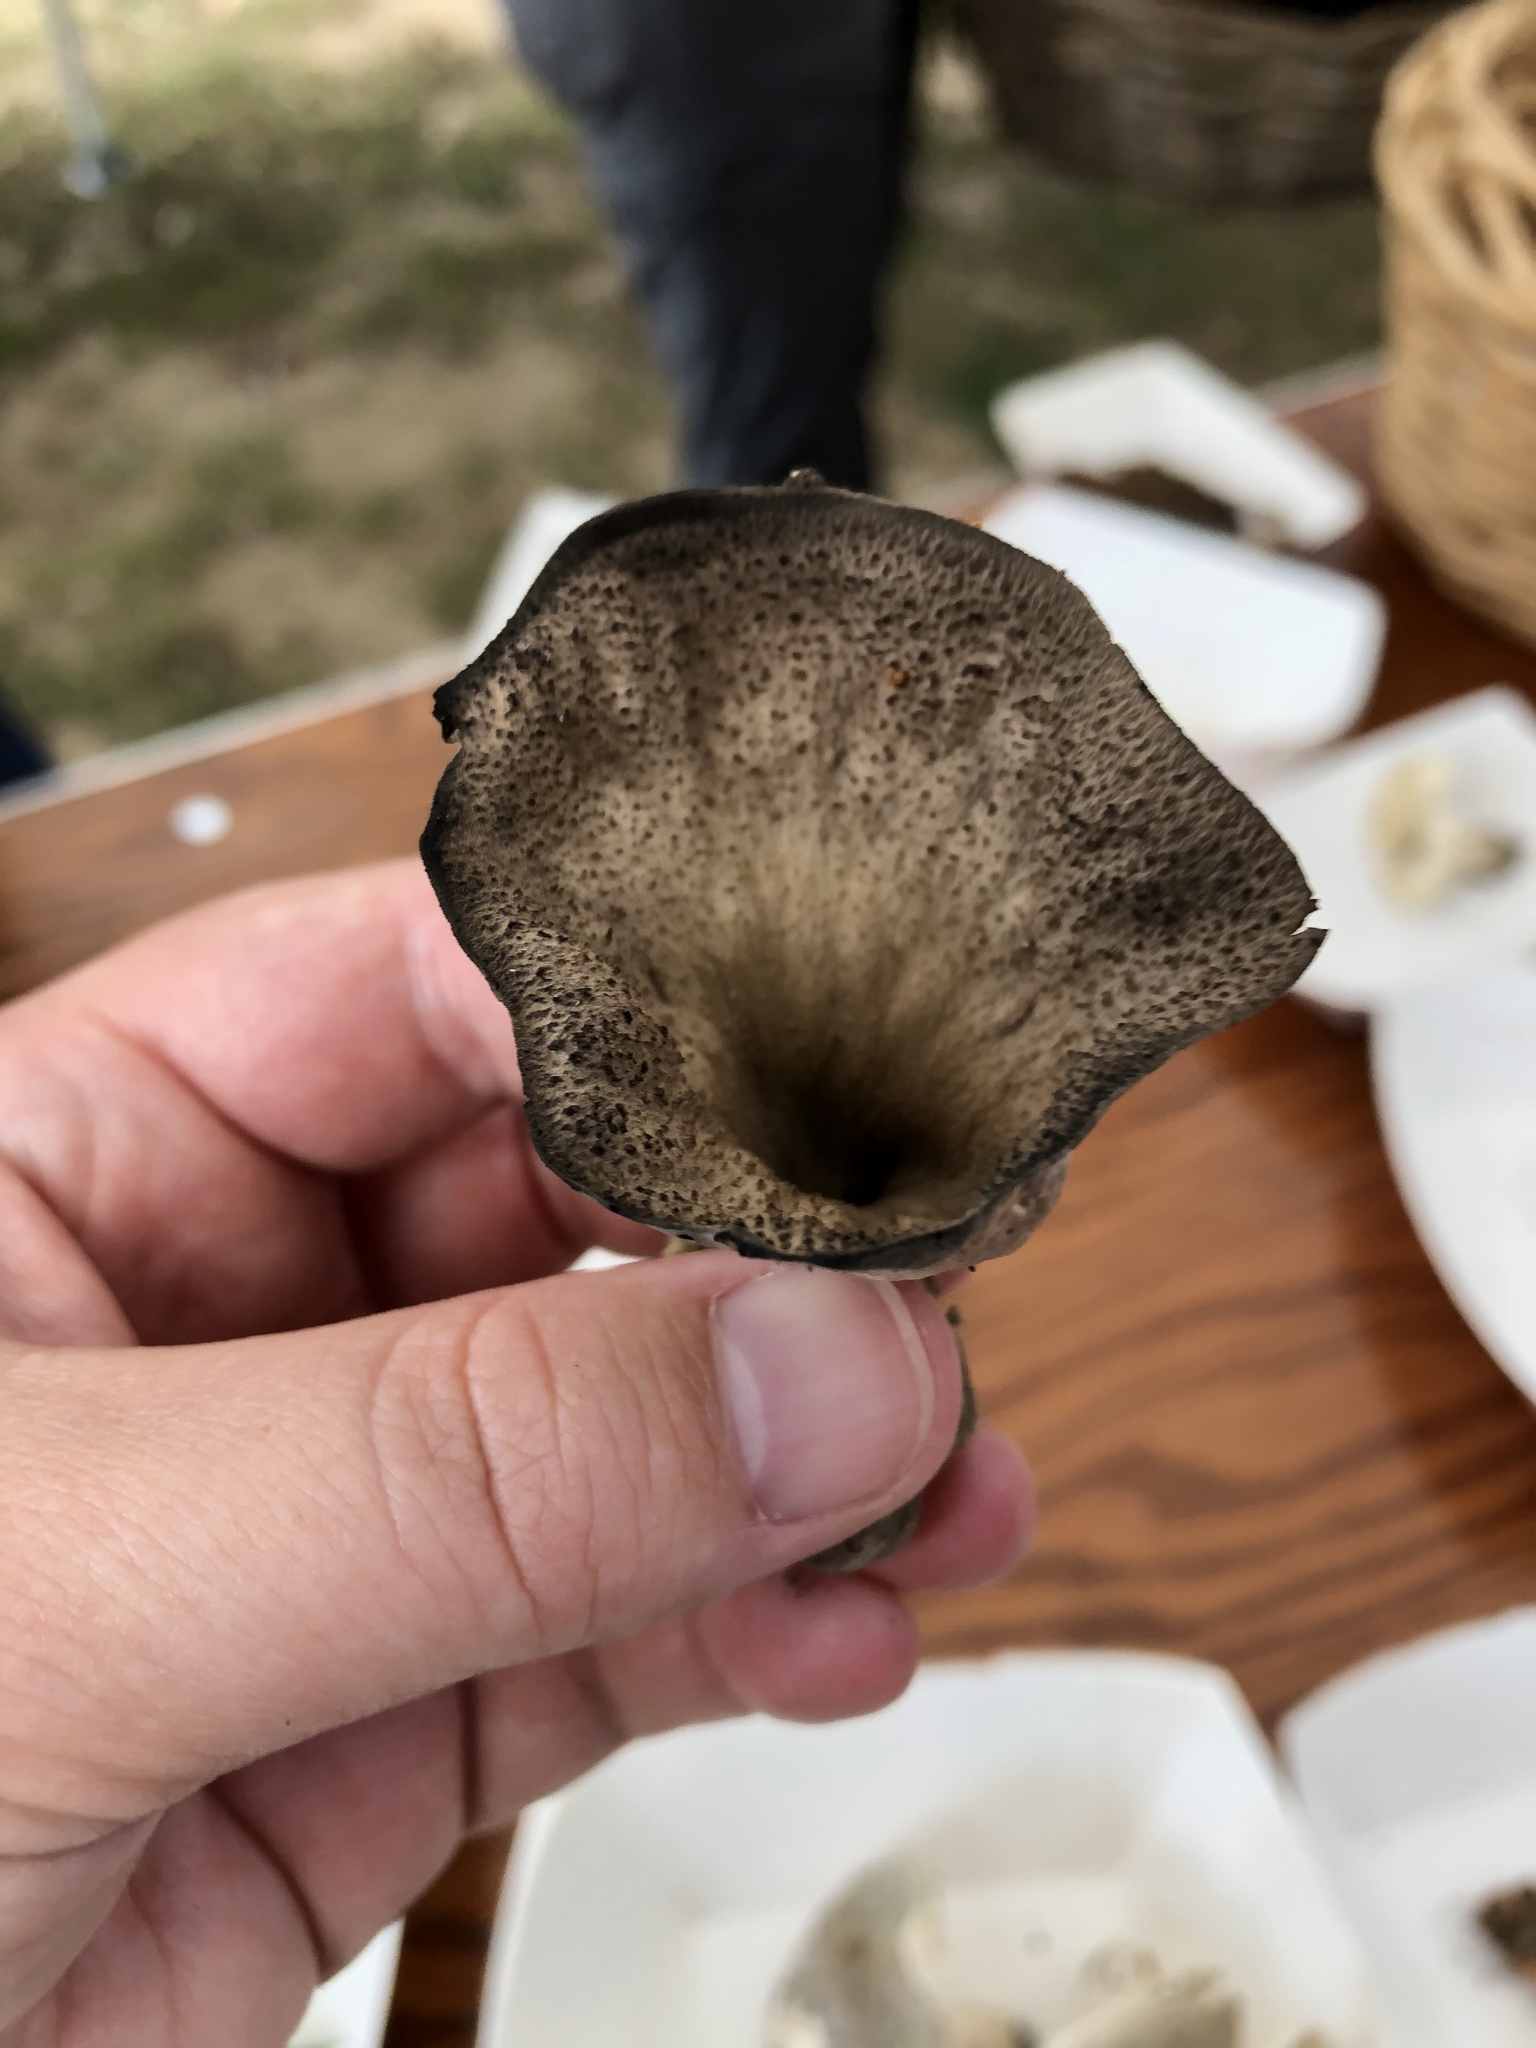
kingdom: Fungi
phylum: Basidiomycota
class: Agaricomycetes
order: Cantharellales
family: Hydnaceae
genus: Craterellus
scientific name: Craterellus cornucopioides
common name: Horn of plenty
